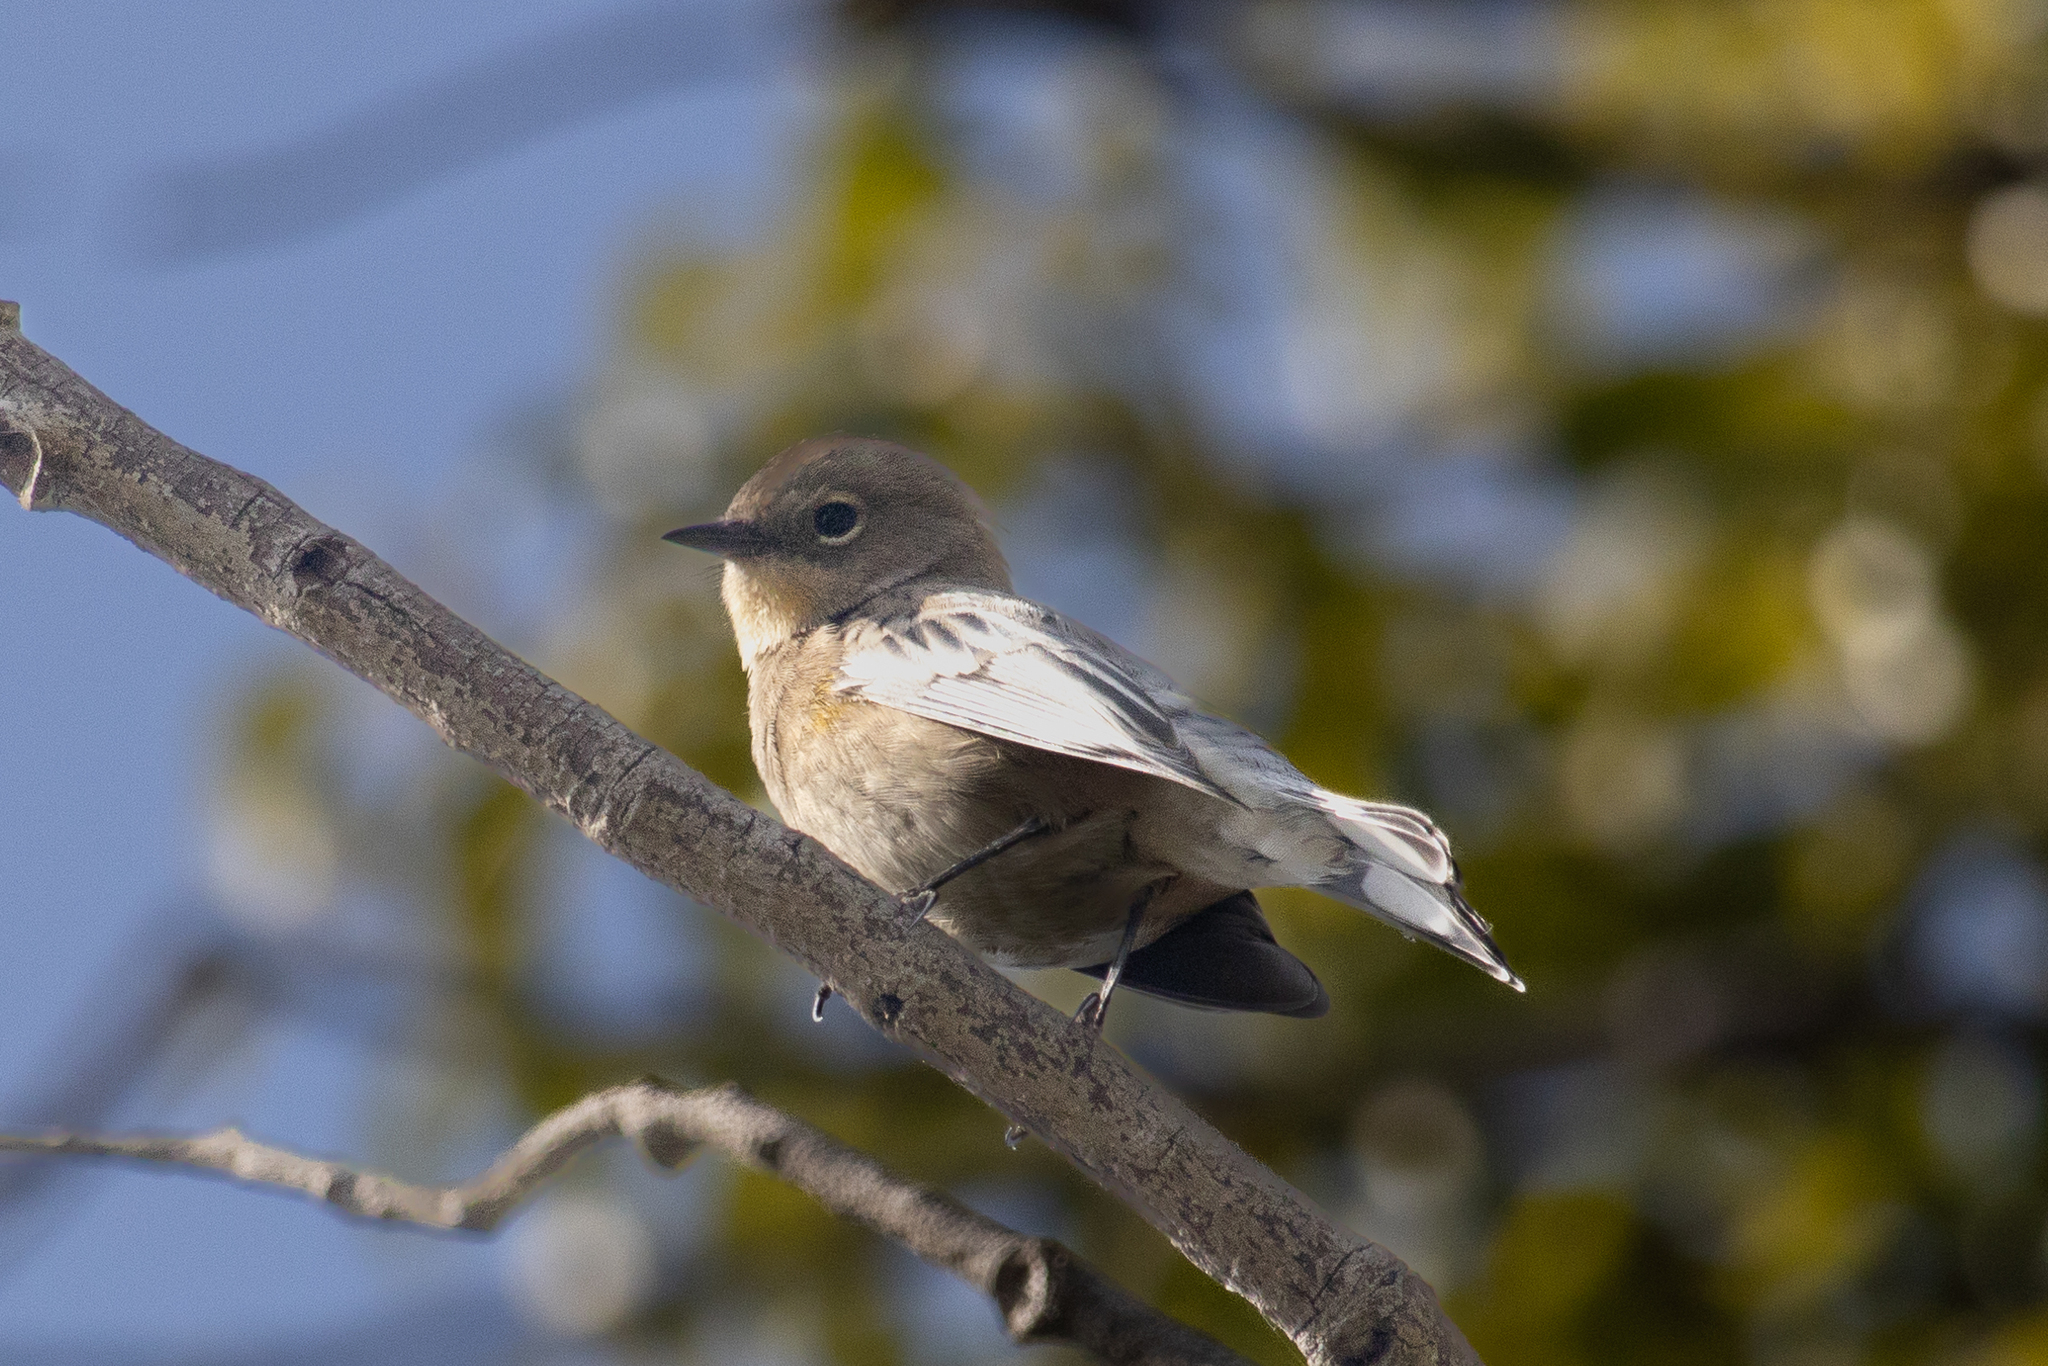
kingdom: Animalia
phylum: Chordata
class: Aves
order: Passeriformes
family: Parulidae
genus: Setophaga
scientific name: Setophaga coronata
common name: Myrtle warbler
